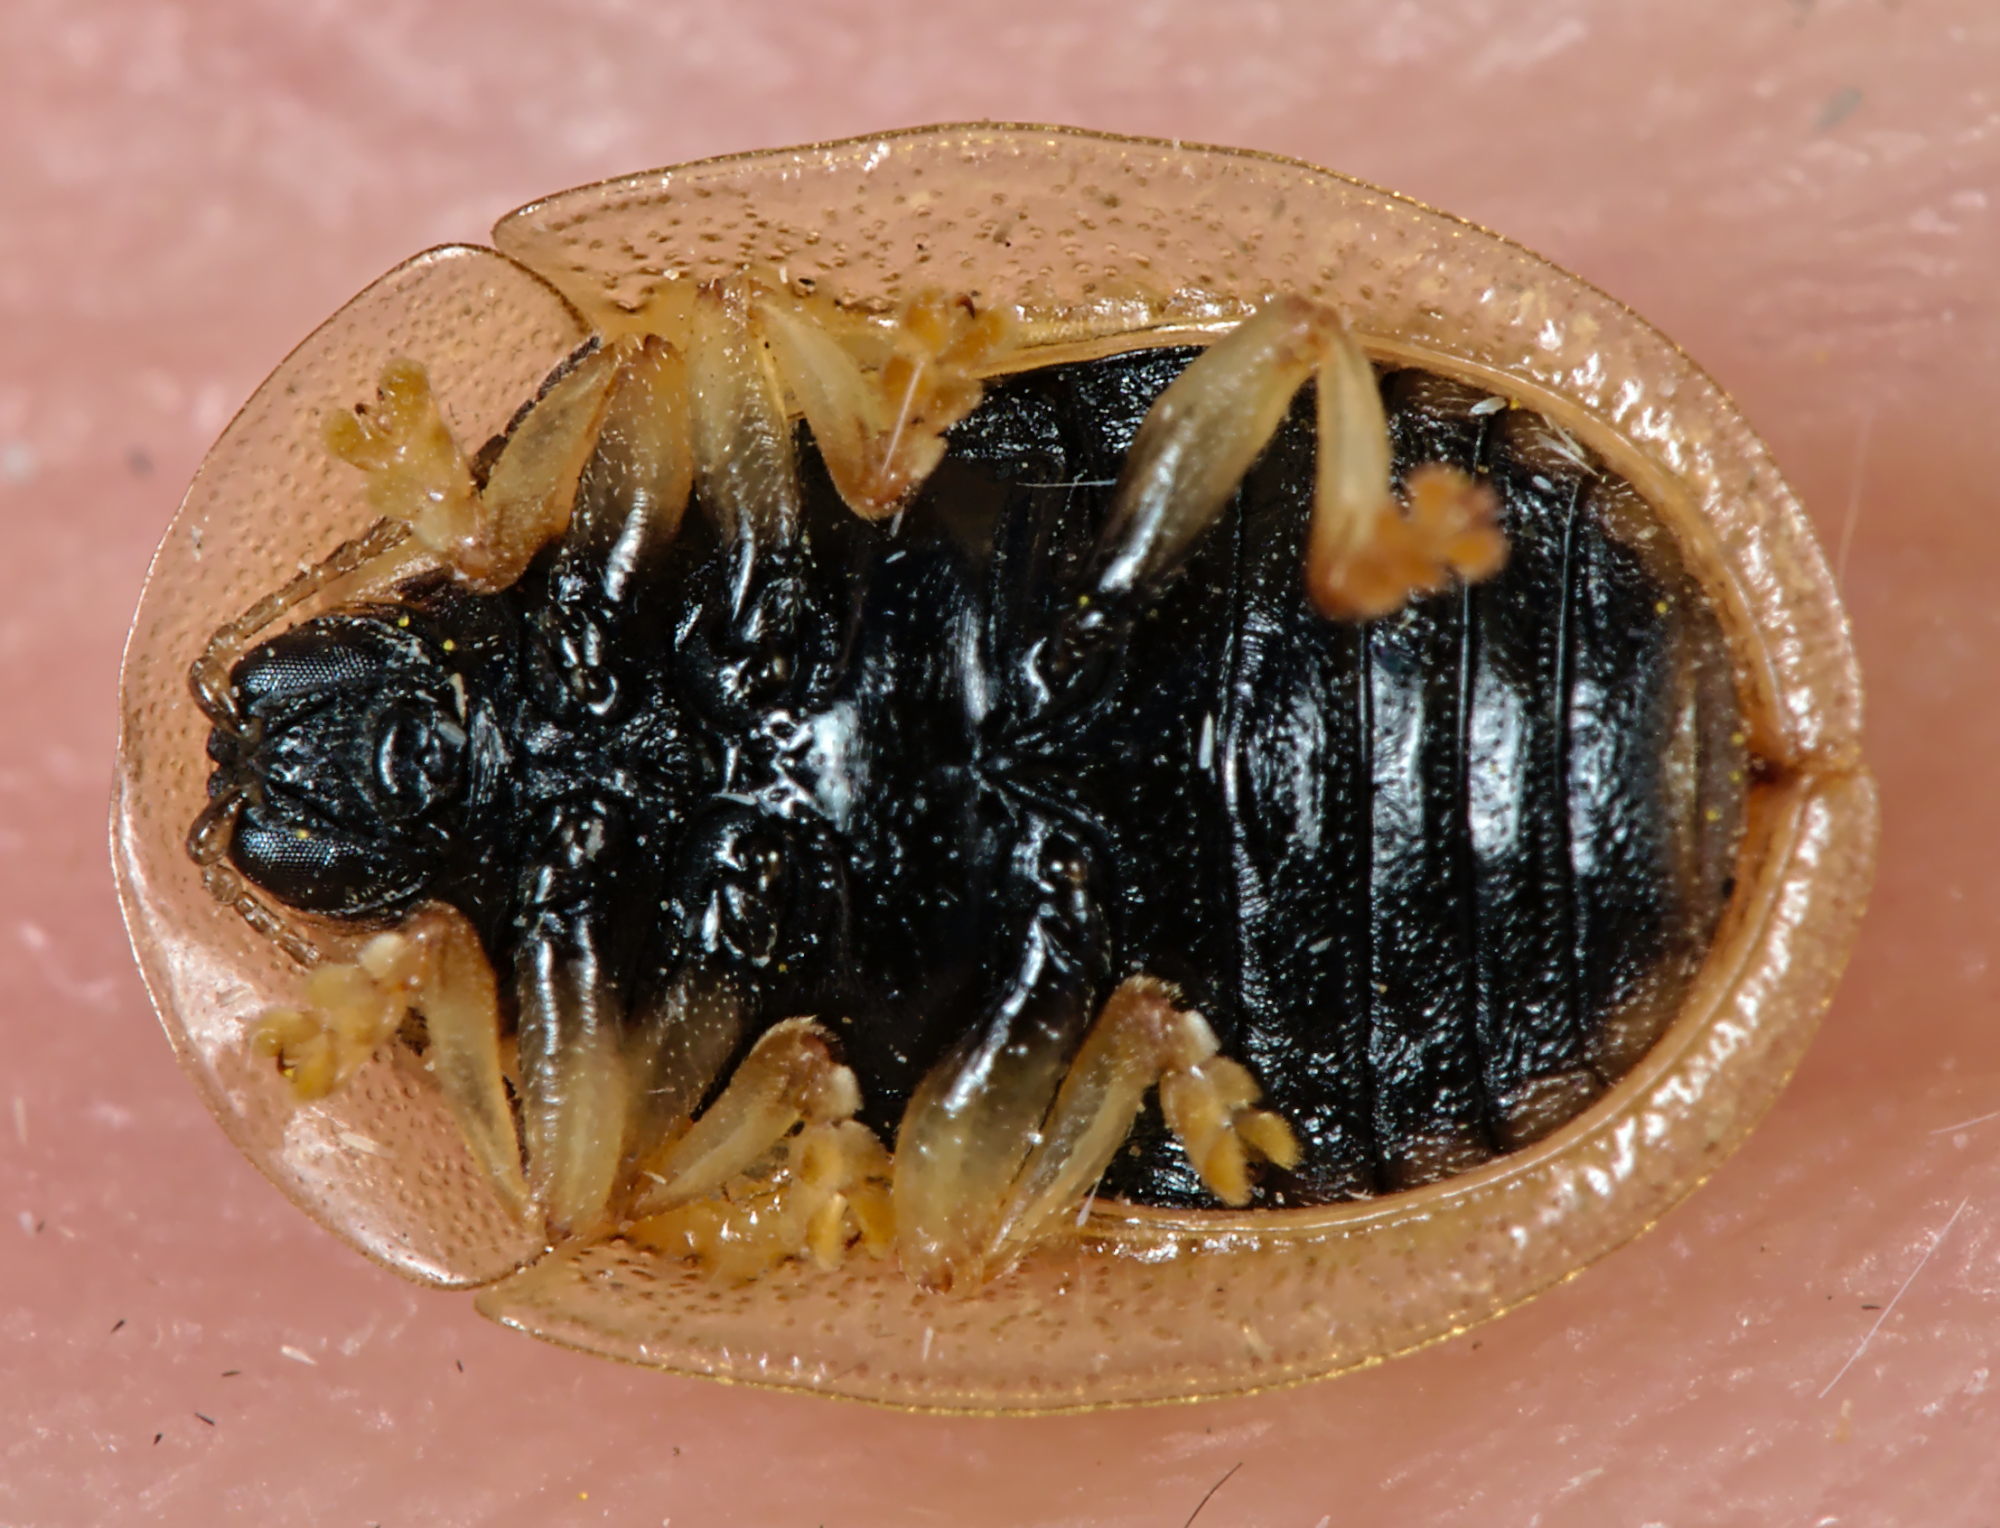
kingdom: Animalia
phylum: Arthropoda
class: Insecta
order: Coleoptera
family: Chrysomelidae
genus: Cassida
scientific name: Cassida azurea
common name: Rainbow tortoise beetle
